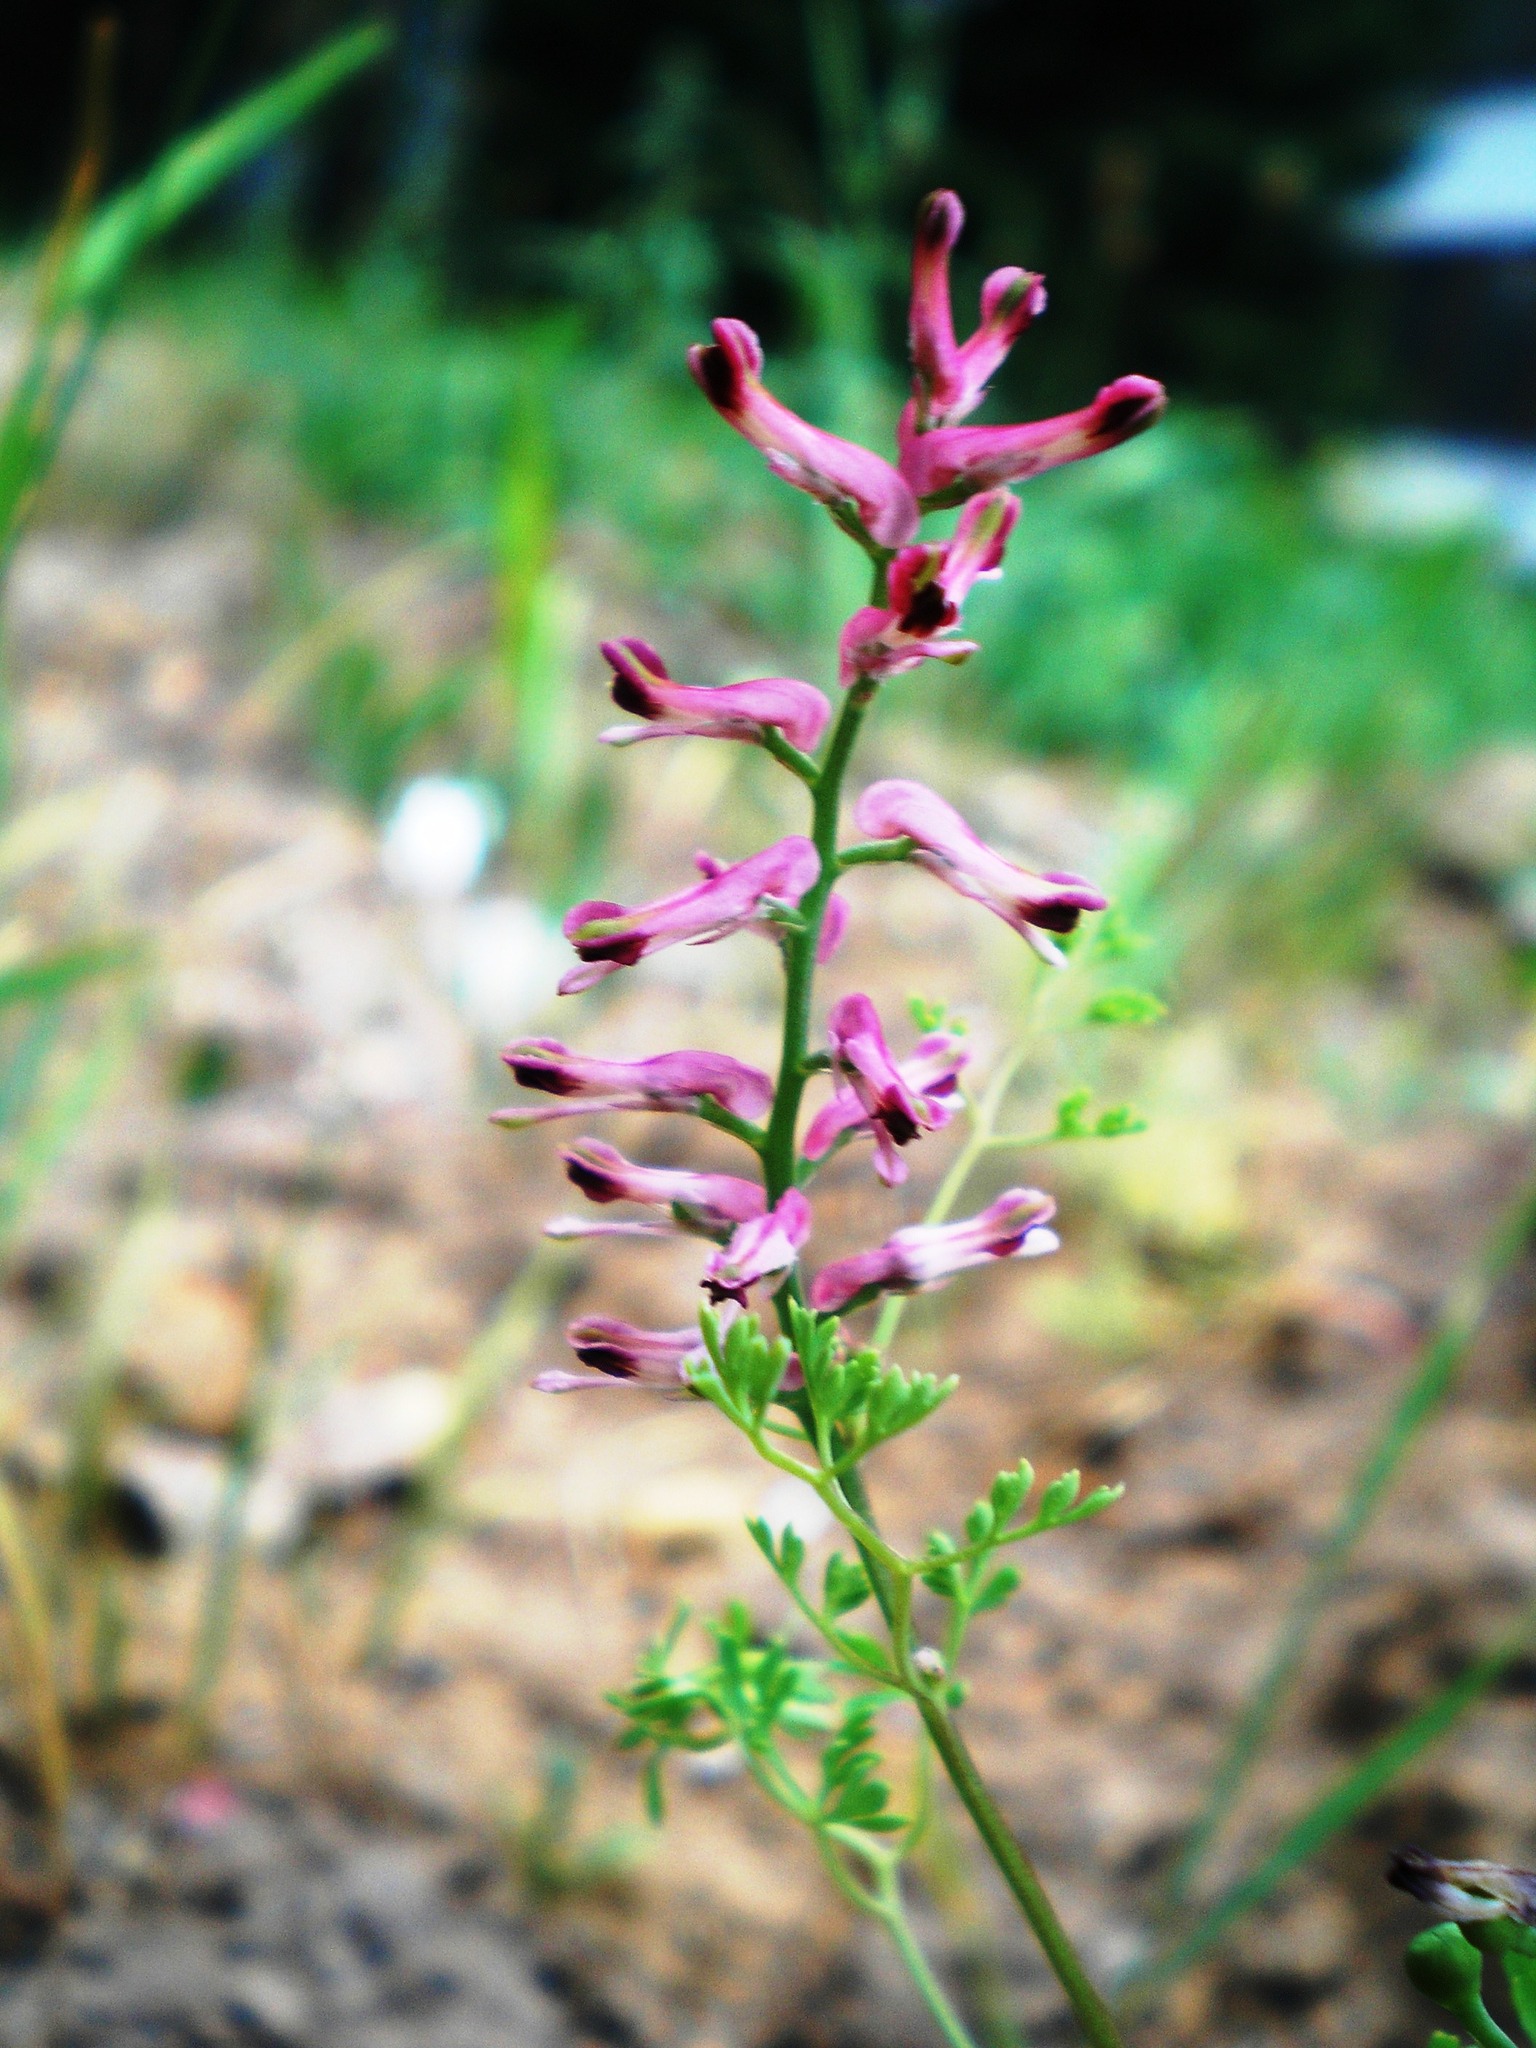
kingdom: Plantae
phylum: Tracheophyta
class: Magnoliopsida
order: Ranunculales
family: Papaveraceae
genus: Fumaria
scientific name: Fumaria officinalis
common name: Common fumitory
